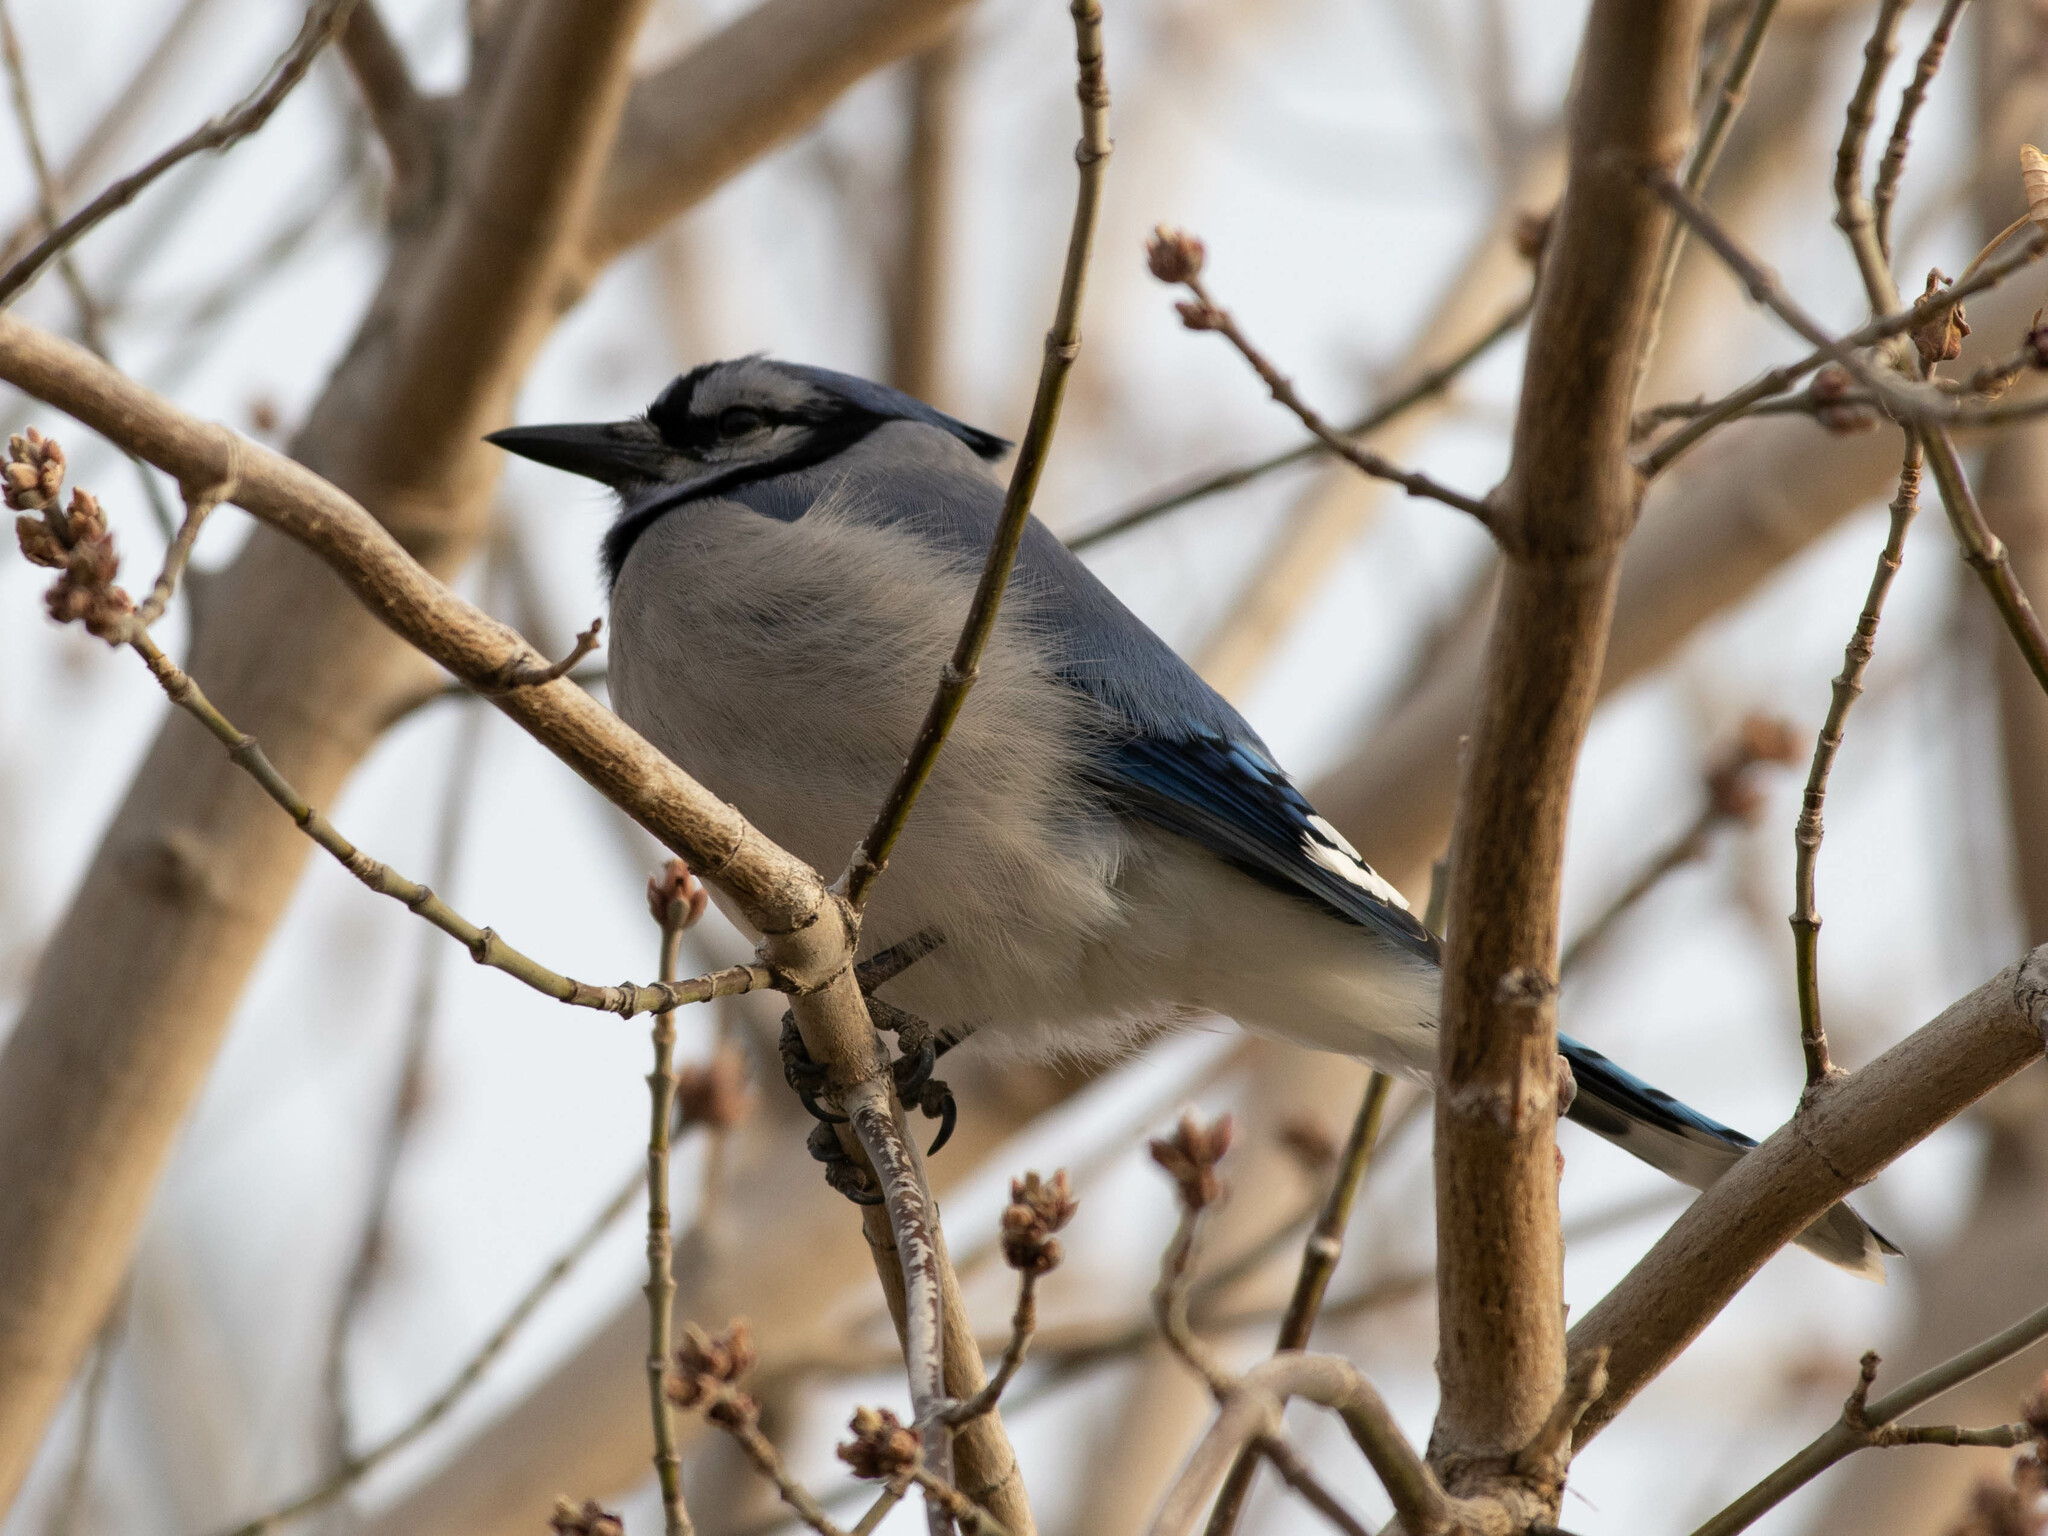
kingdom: Animalia
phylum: Chordata
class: Aves
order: Passeriformes
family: Corvidae
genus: Cyanocitta
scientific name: Cyanocitta cristata
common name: Blue jay
